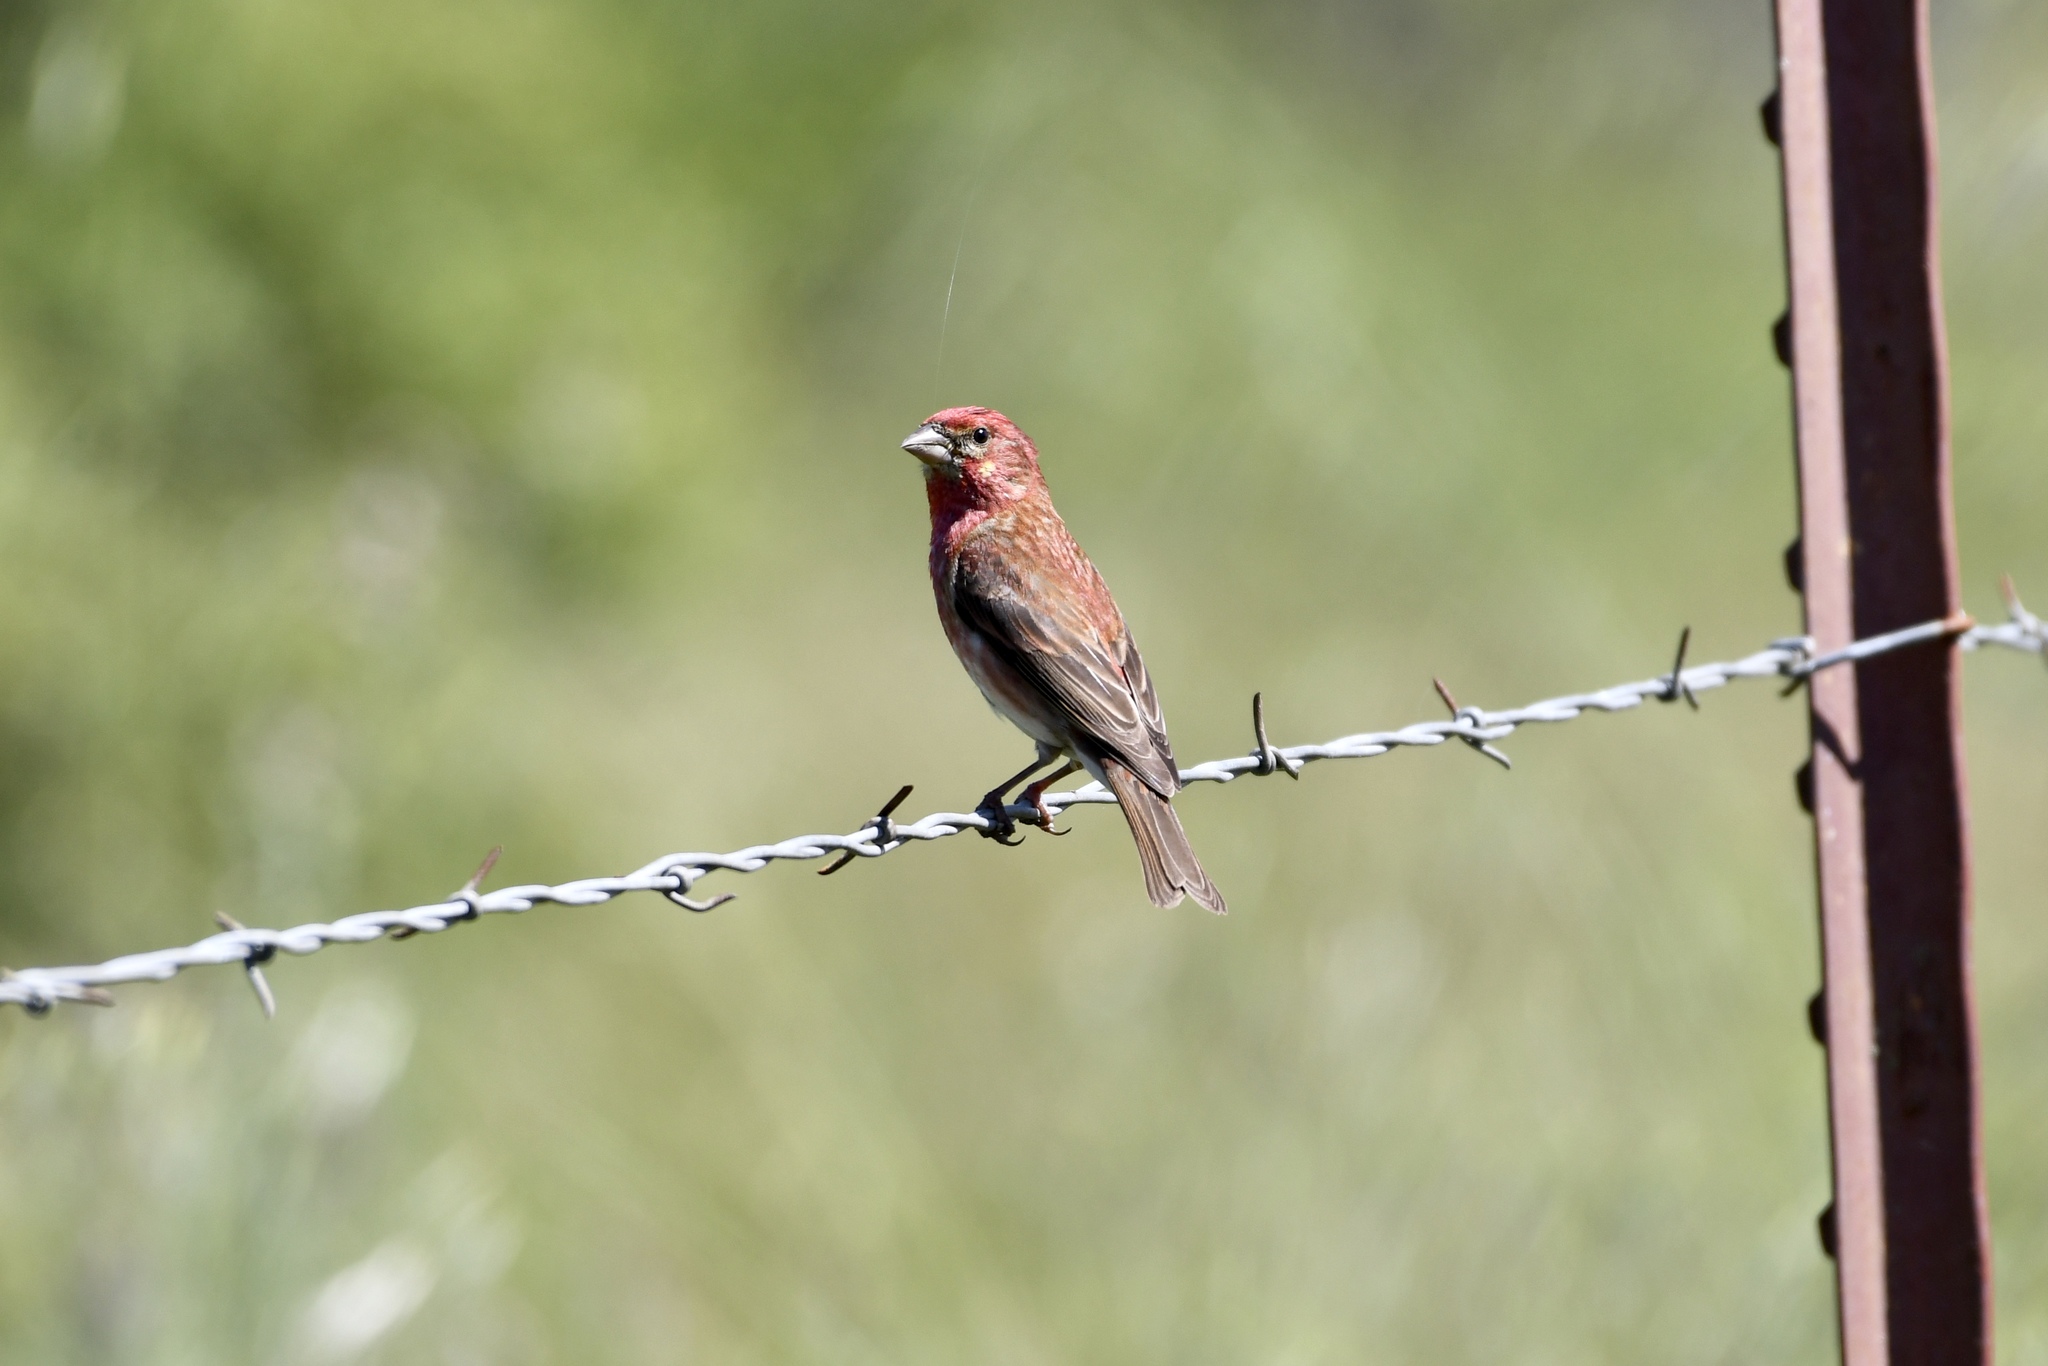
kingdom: Animalia
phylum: Chordata
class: Aves
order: Passeriformes
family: Fringillidae
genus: Haemorhous
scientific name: Haemorhous purpureus
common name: Purple finch
